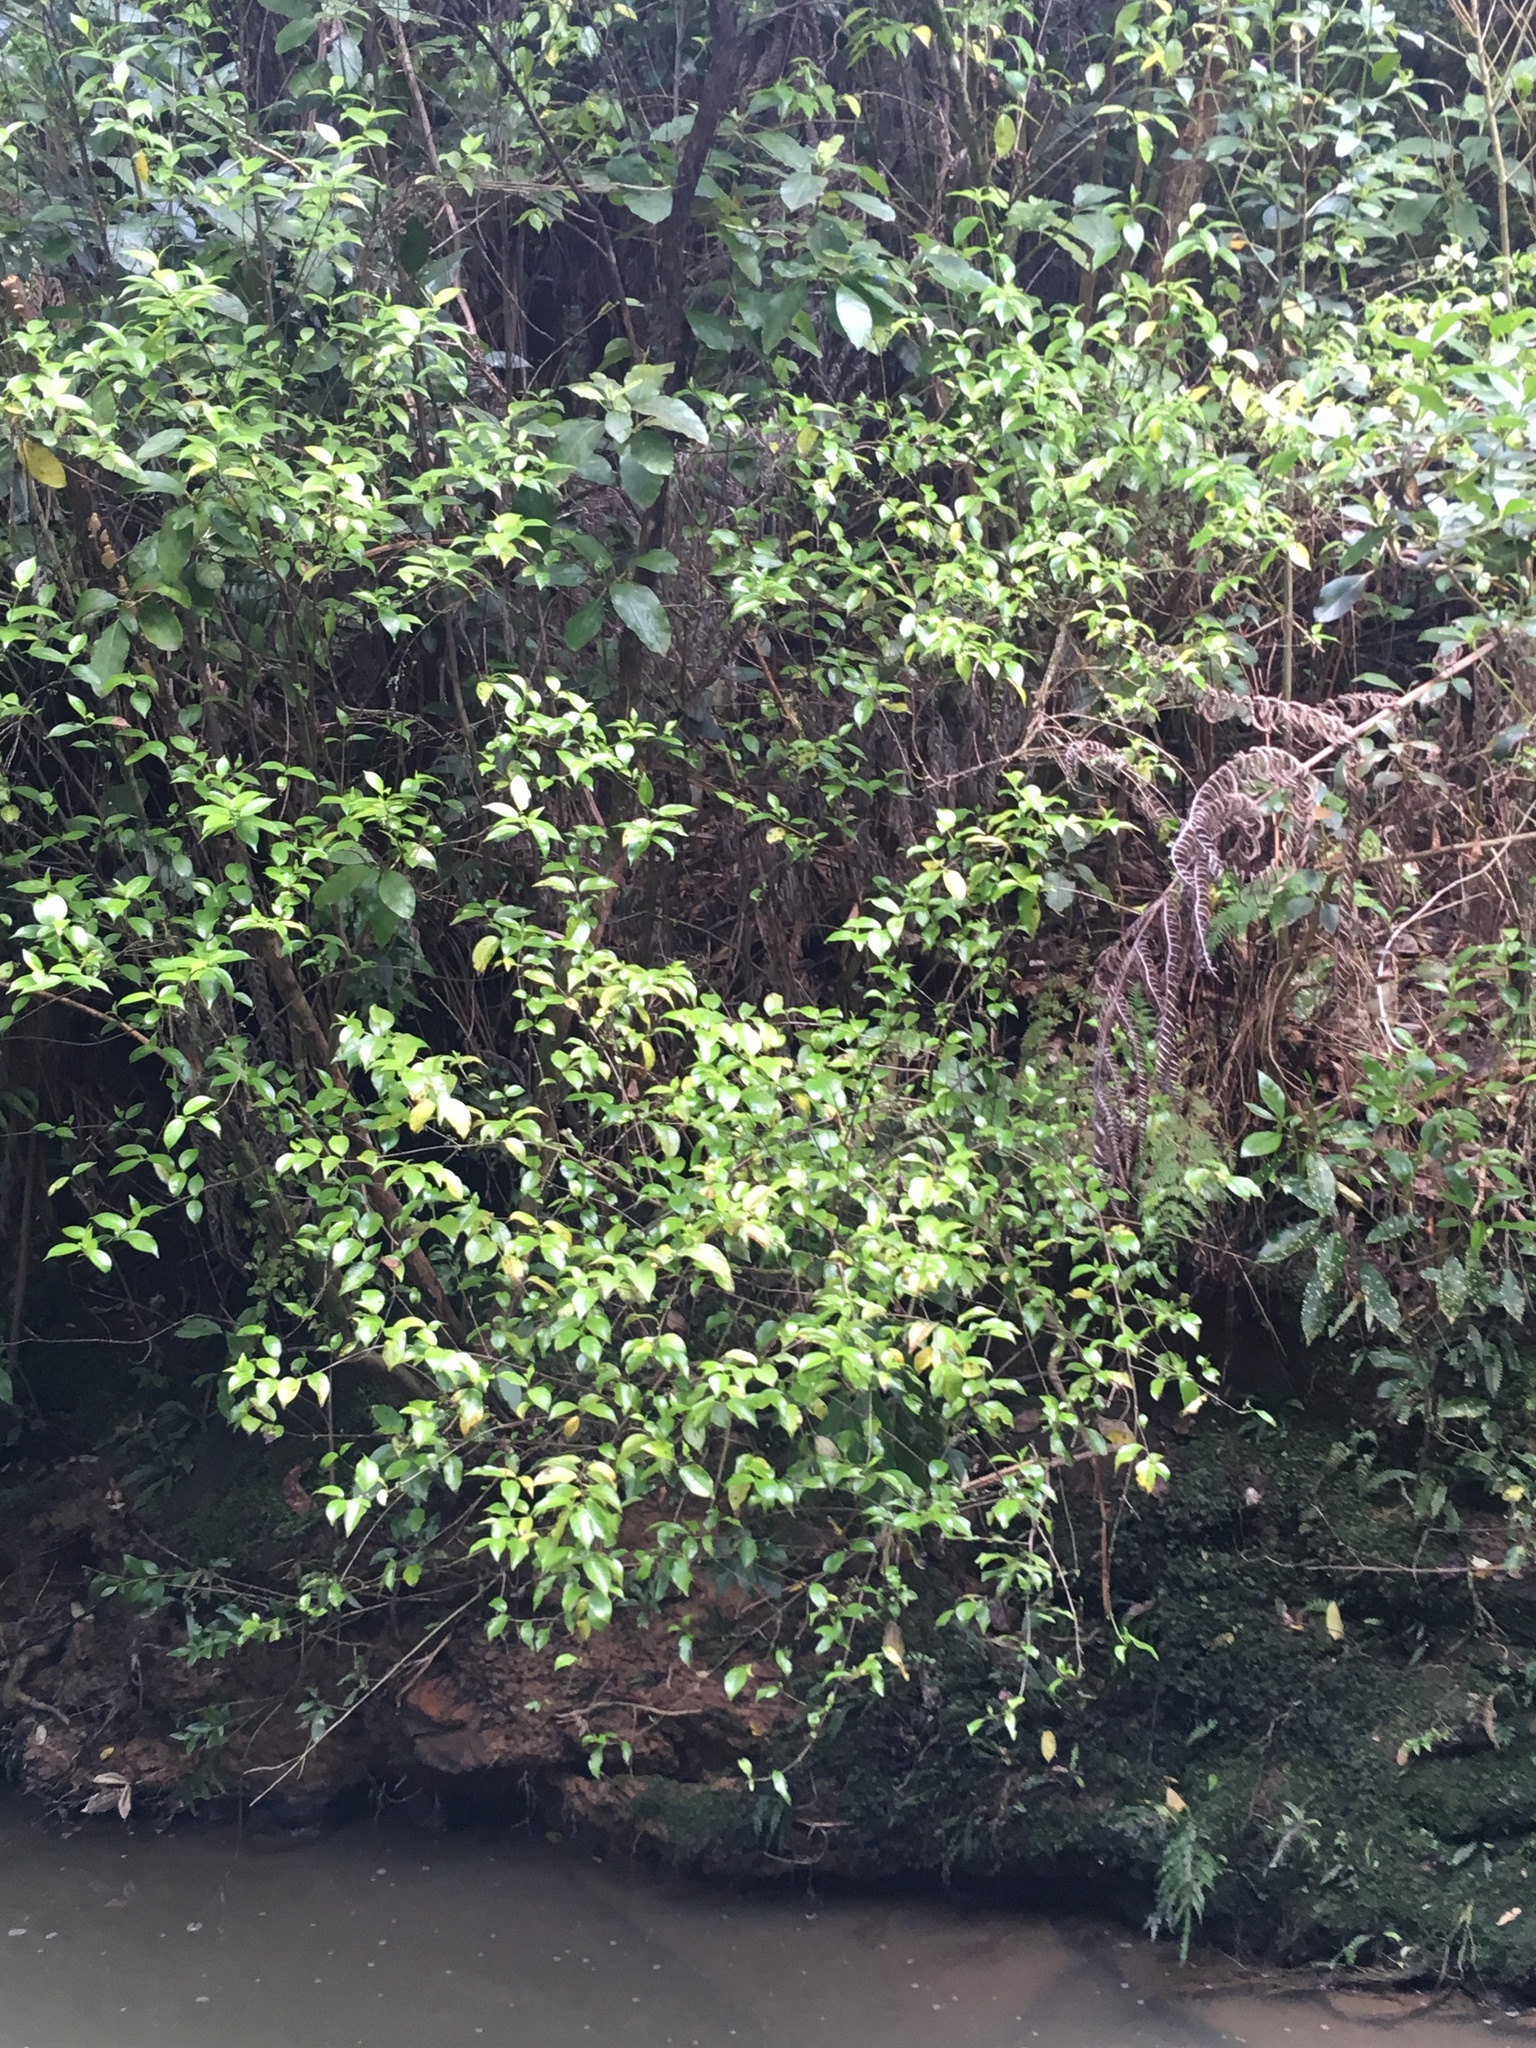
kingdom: Plantae
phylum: Tracheophyta
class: Magnoliopsida
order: Gentianales
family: Loganiaceae
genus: Geniostoma
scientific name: Geniostoma ligustrifolium
